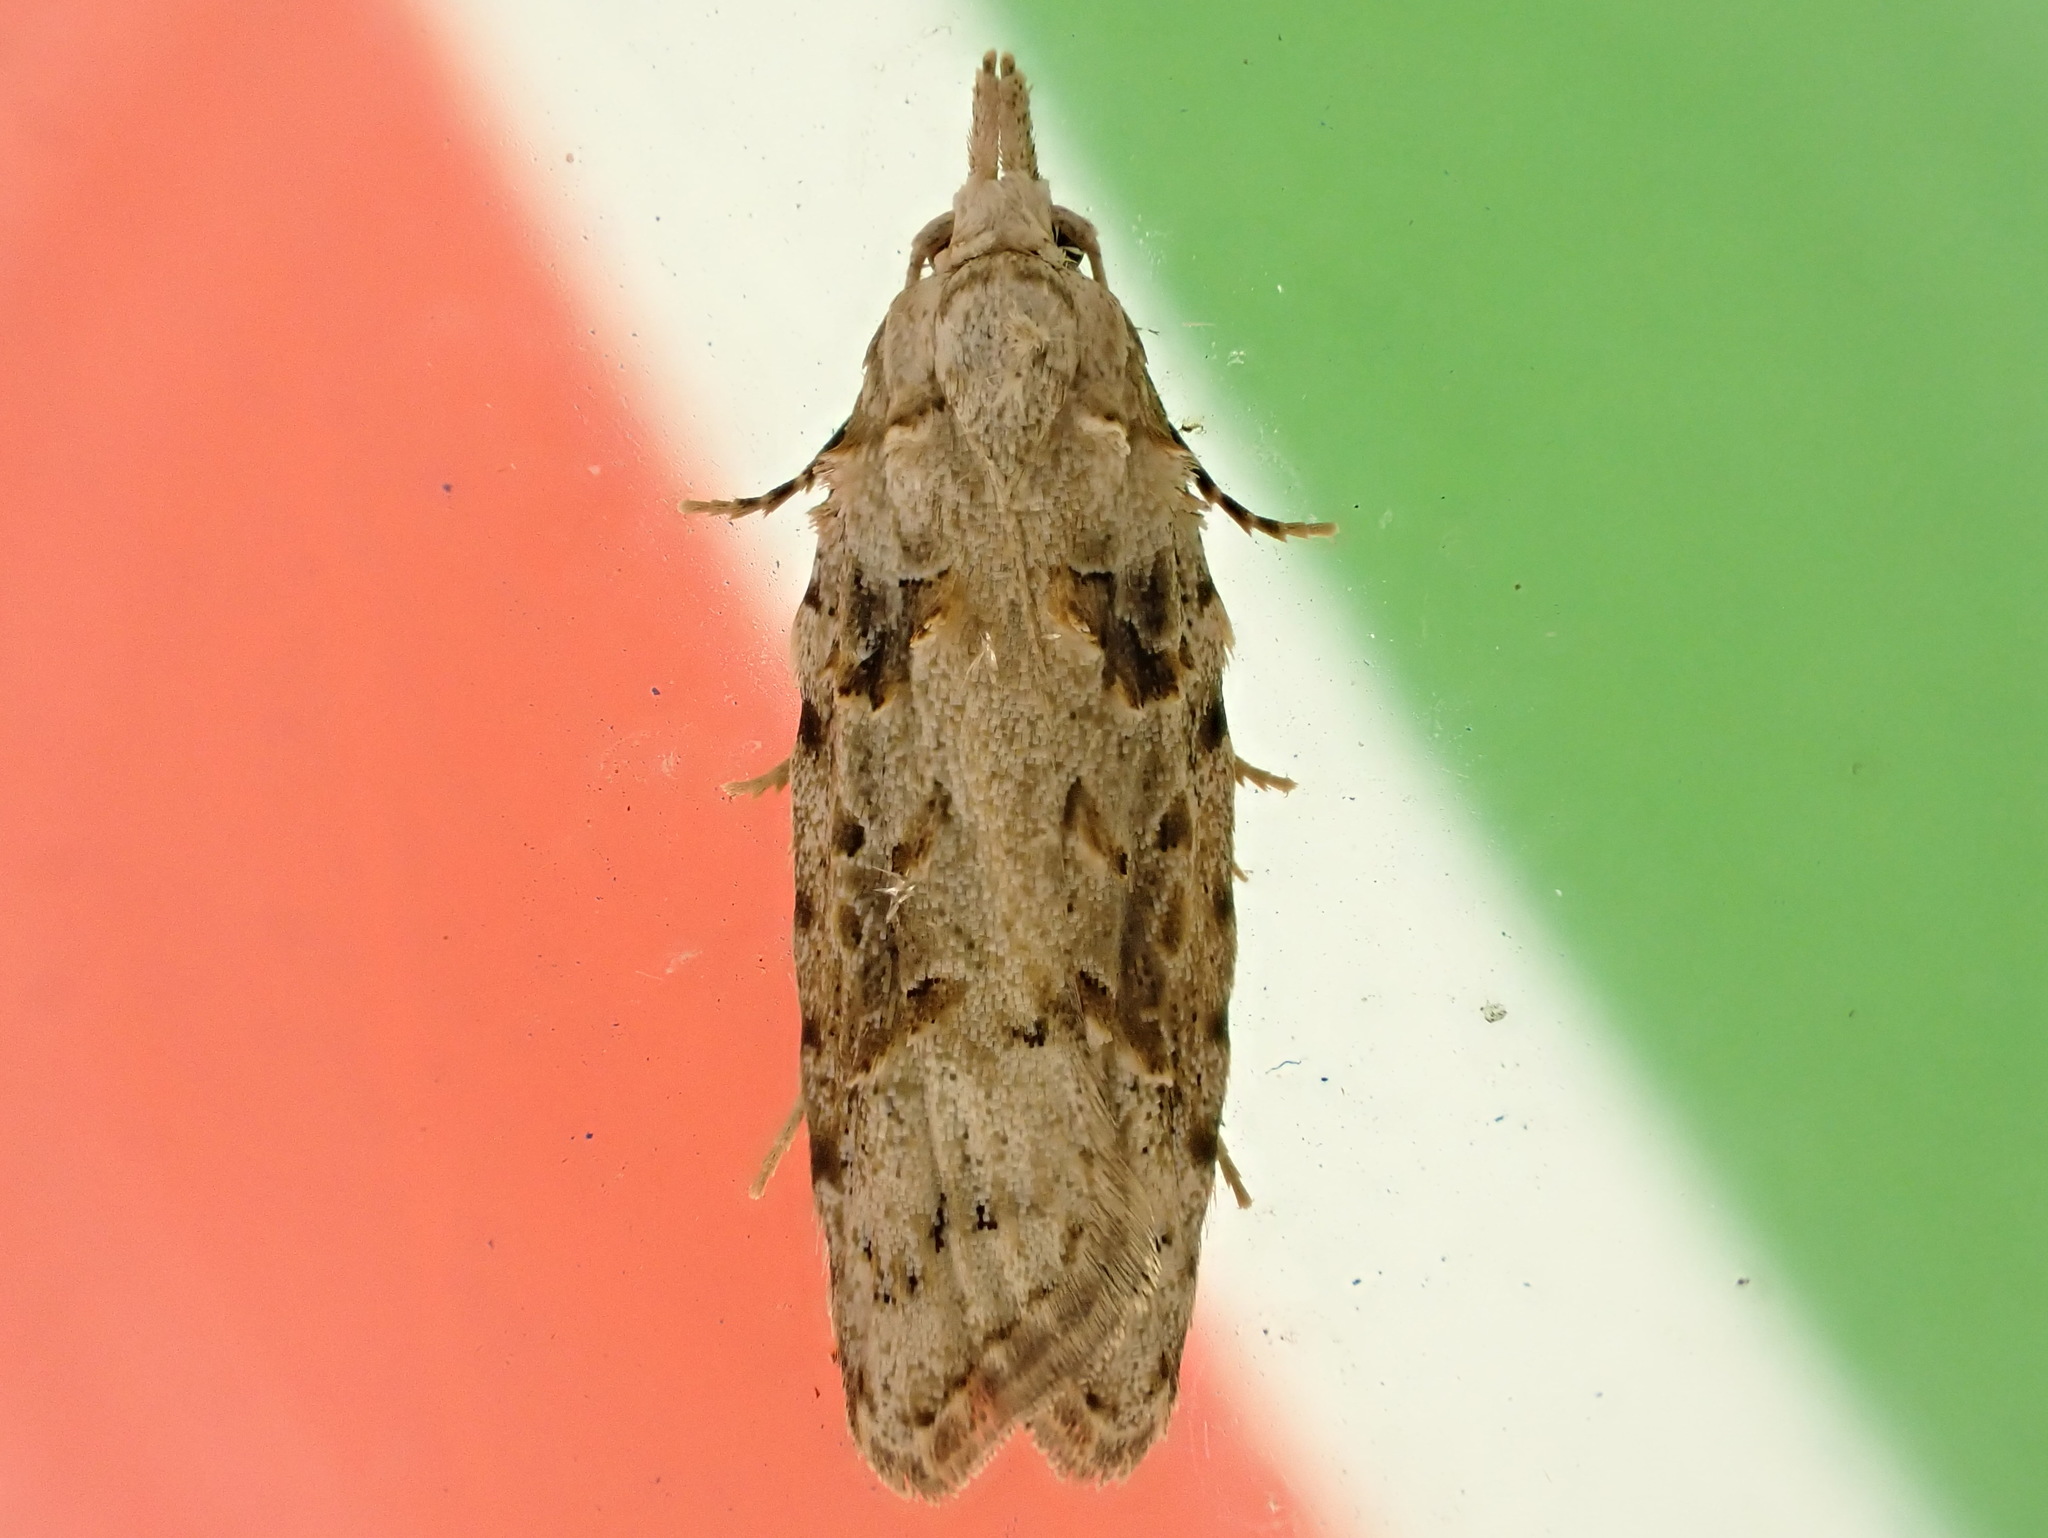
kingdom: Animalia
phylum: Arthropoda
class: Insecta
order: Lepidoptera
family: Carposinidae
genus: Carposina
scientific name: Carposina
